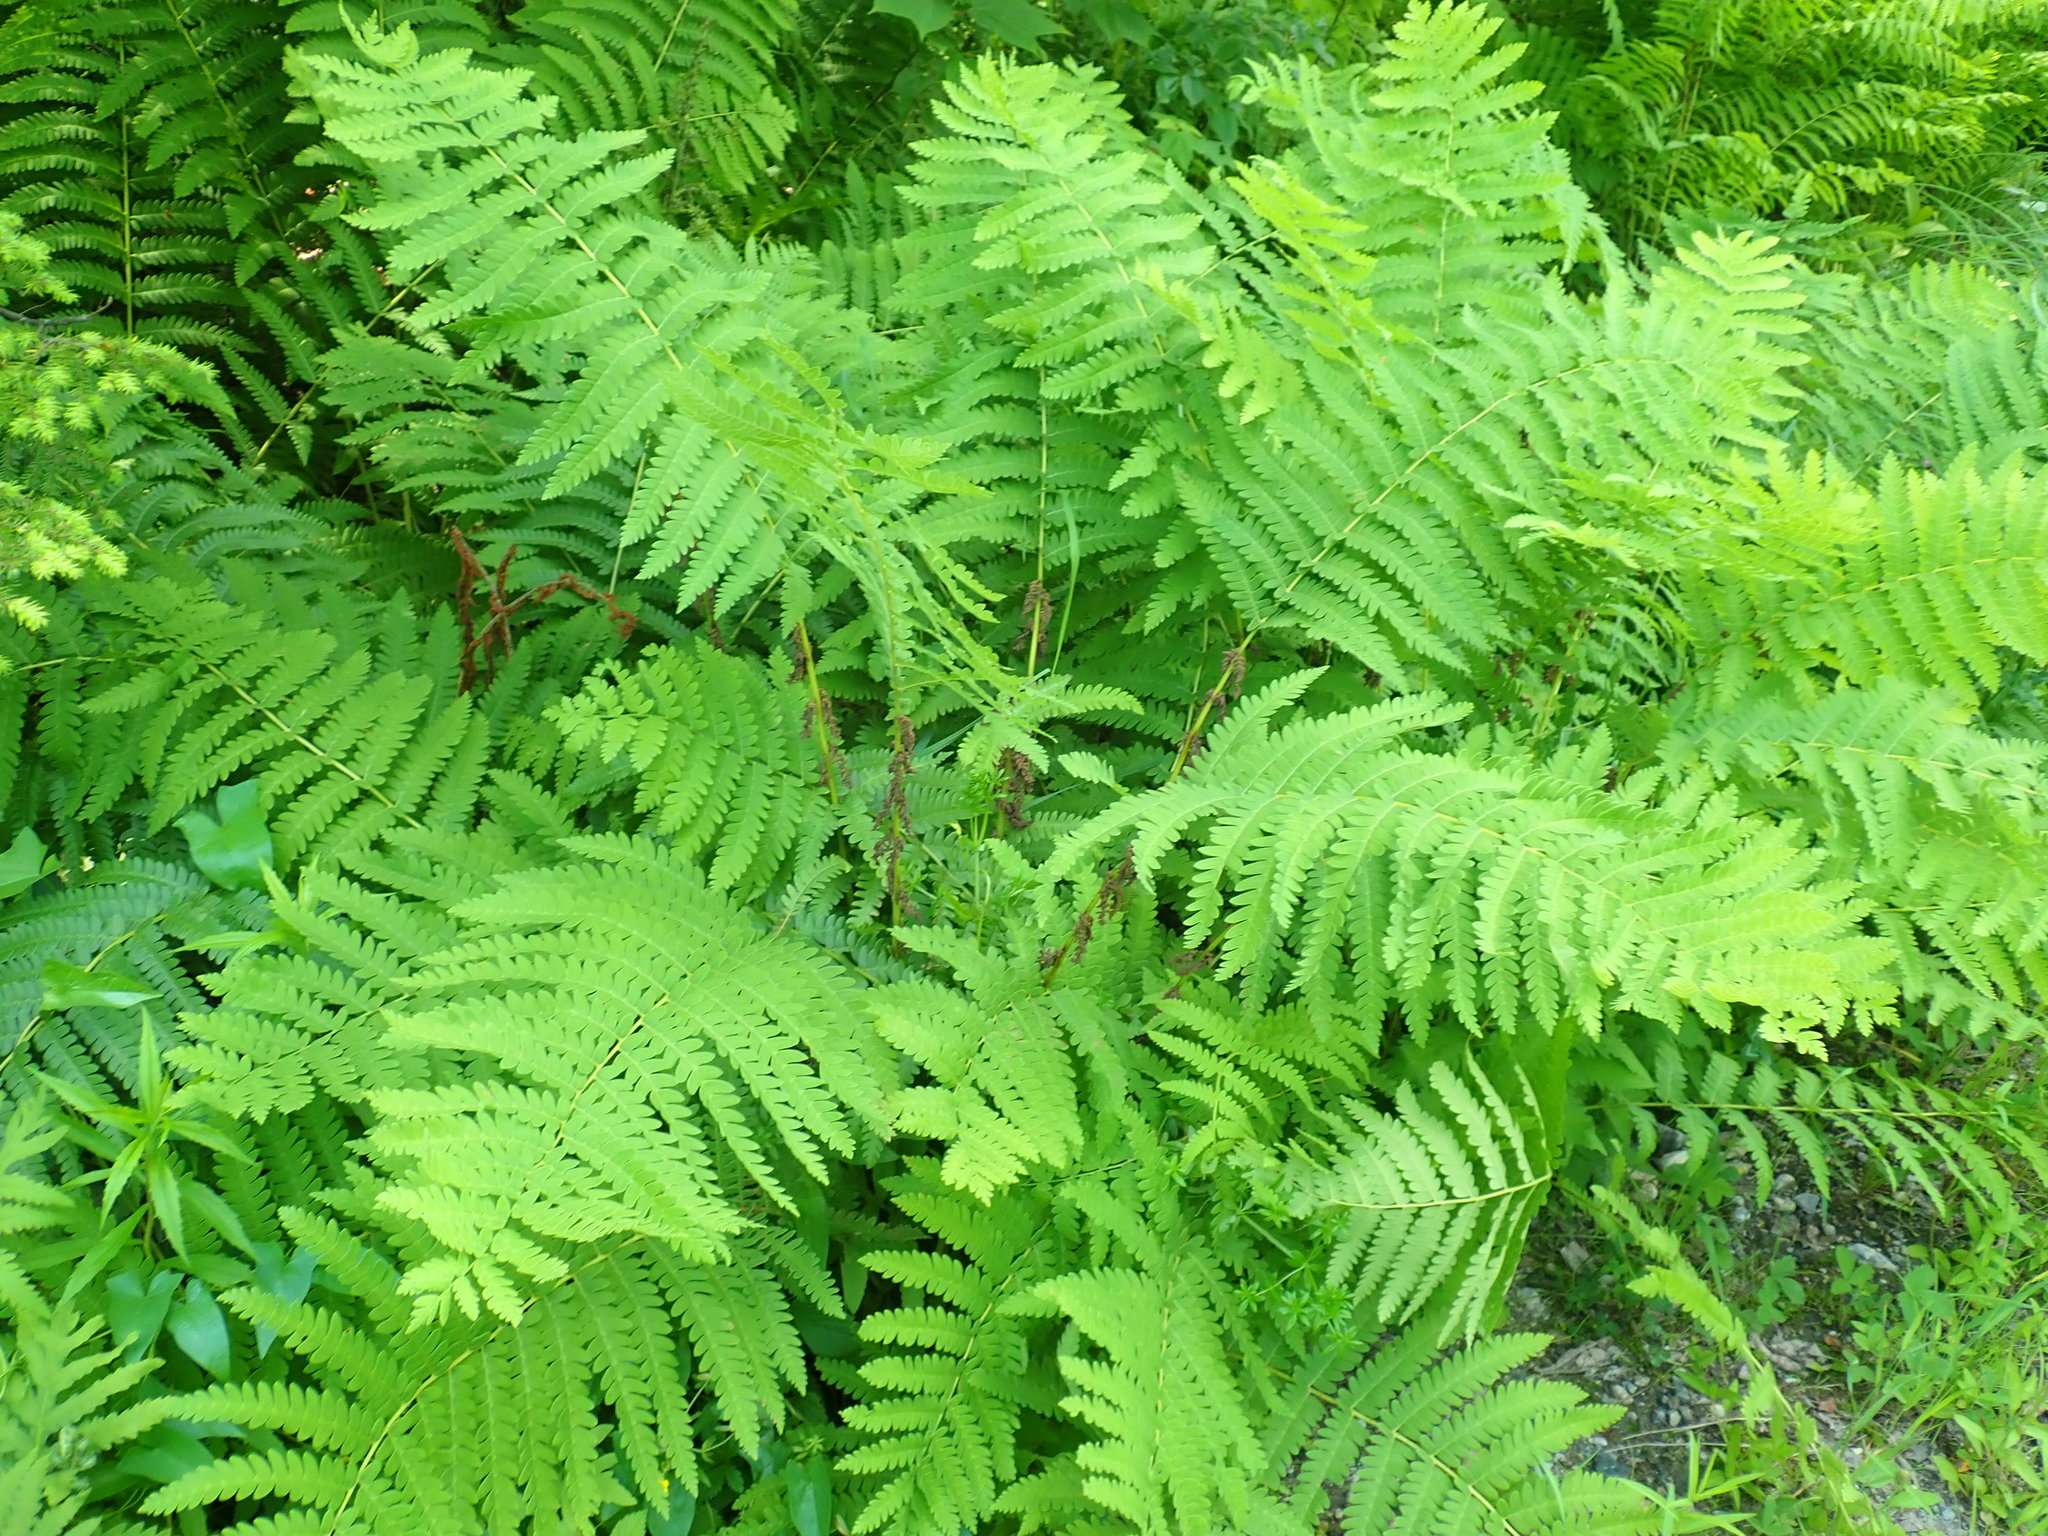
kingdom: Plantae
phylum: Tracheophyta
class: Polypodiopsida
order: Osmundales
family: Osmundaceae
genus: Claytosmunda
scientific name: Claytosmunda claytoniana
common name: Clayton's fern
